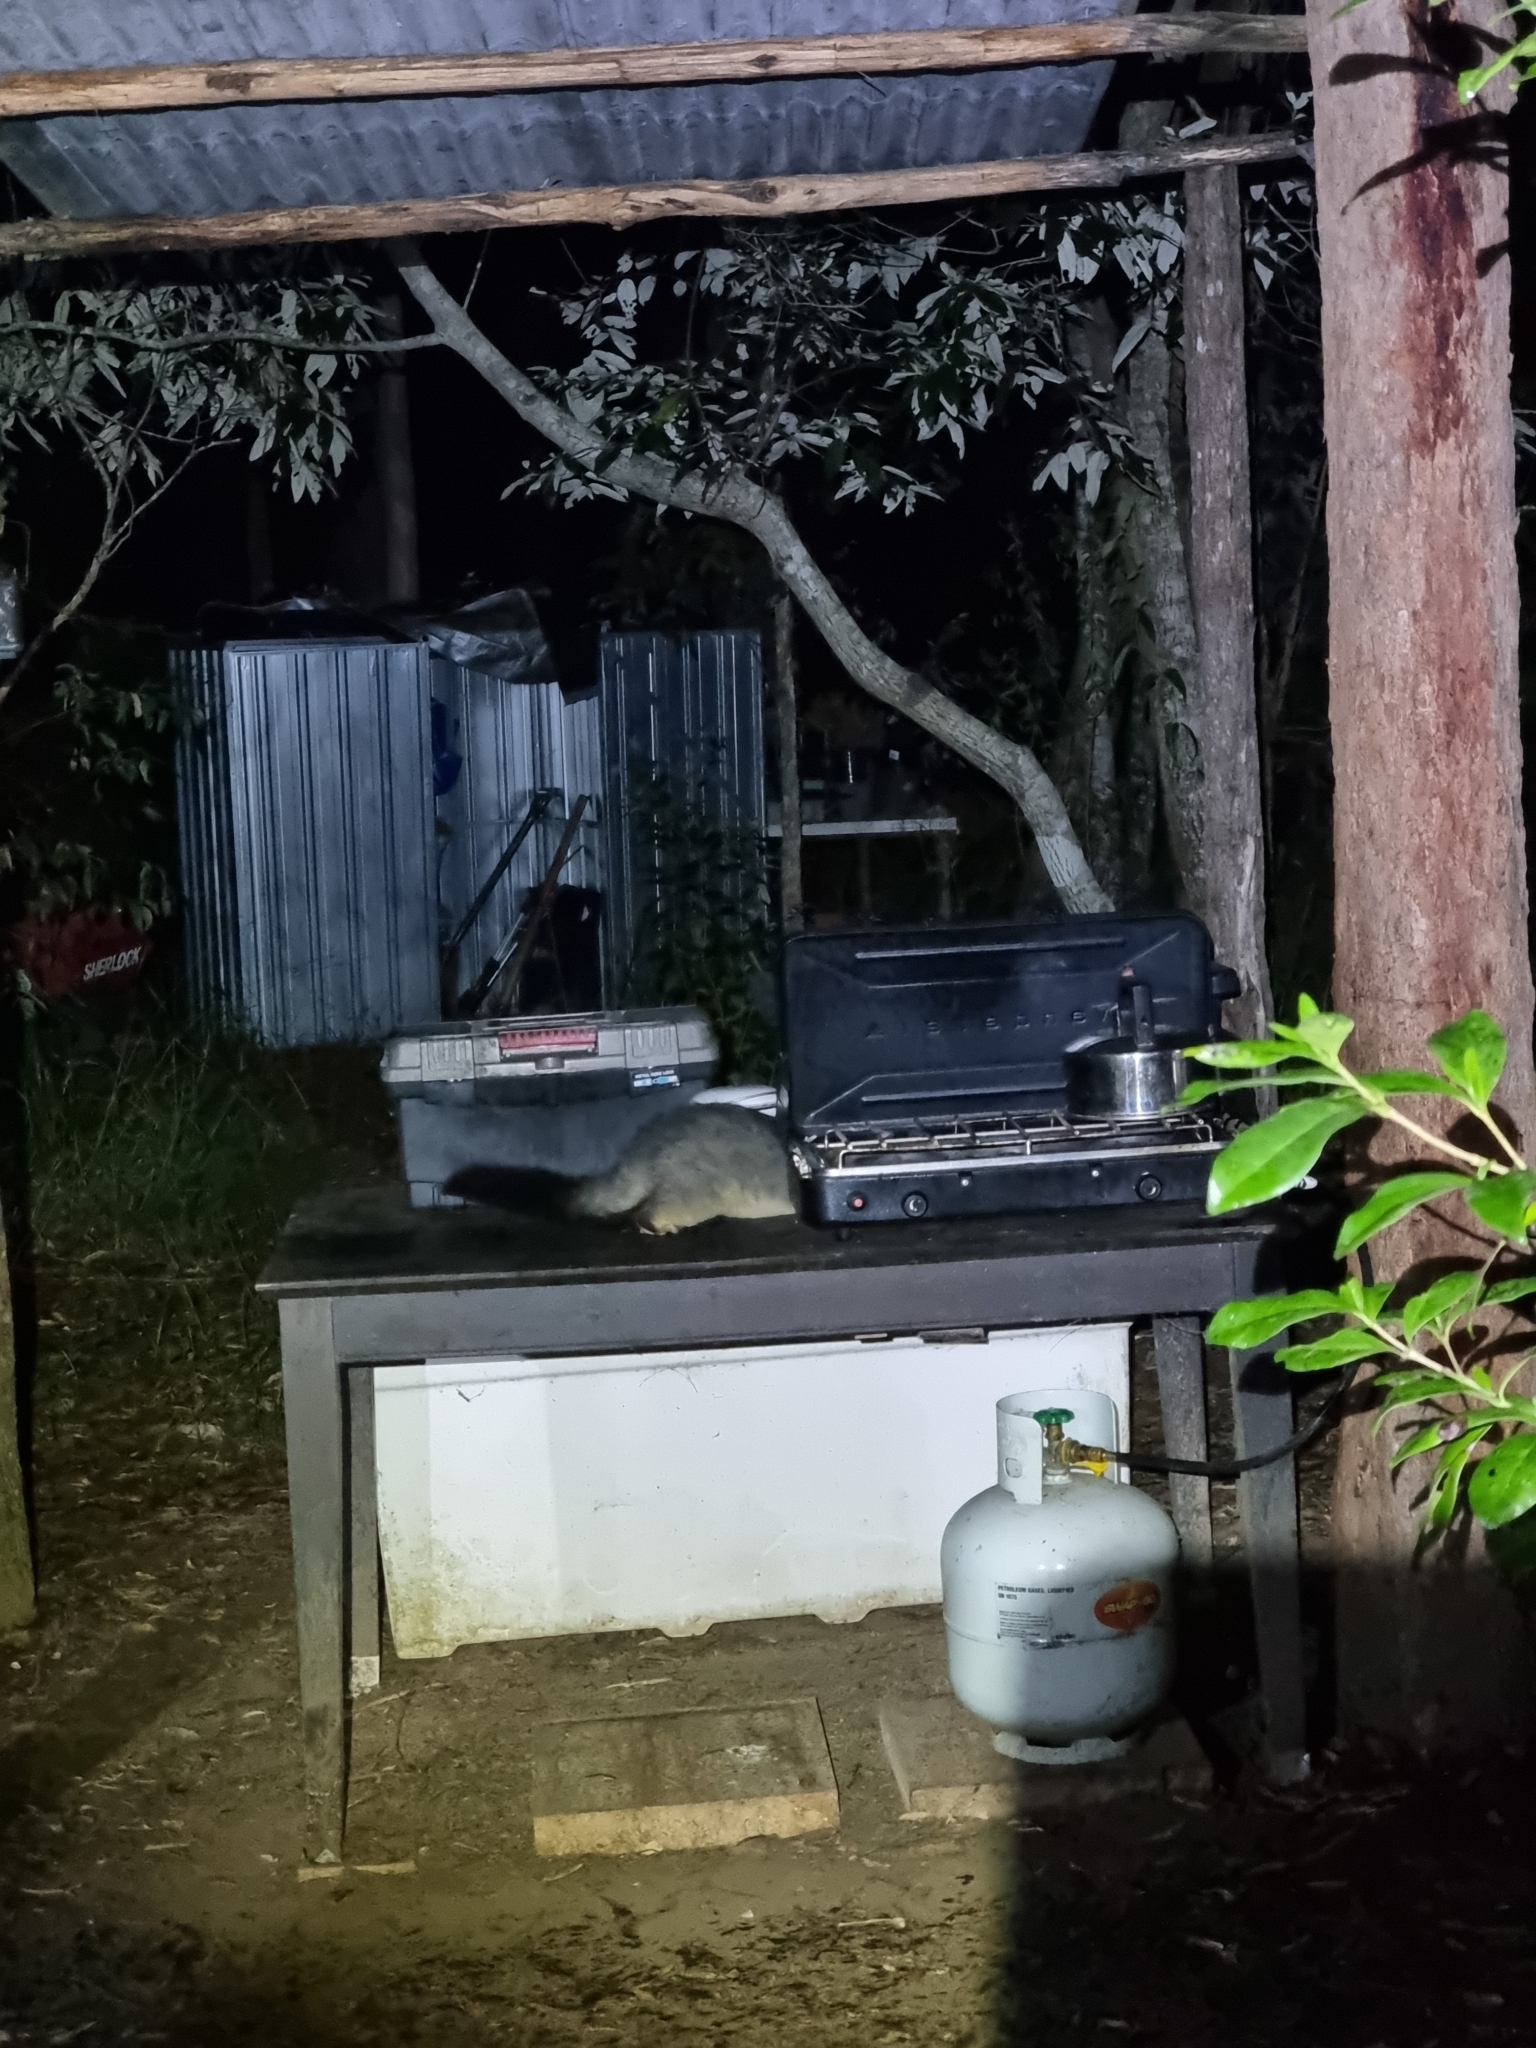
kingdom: Animalia
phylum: Chordata
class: Mammalia
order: Diprotodontia
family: Phalangeridae
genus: Trichosurus
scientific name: Trichosurus vulpecula
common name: Common brushtail
